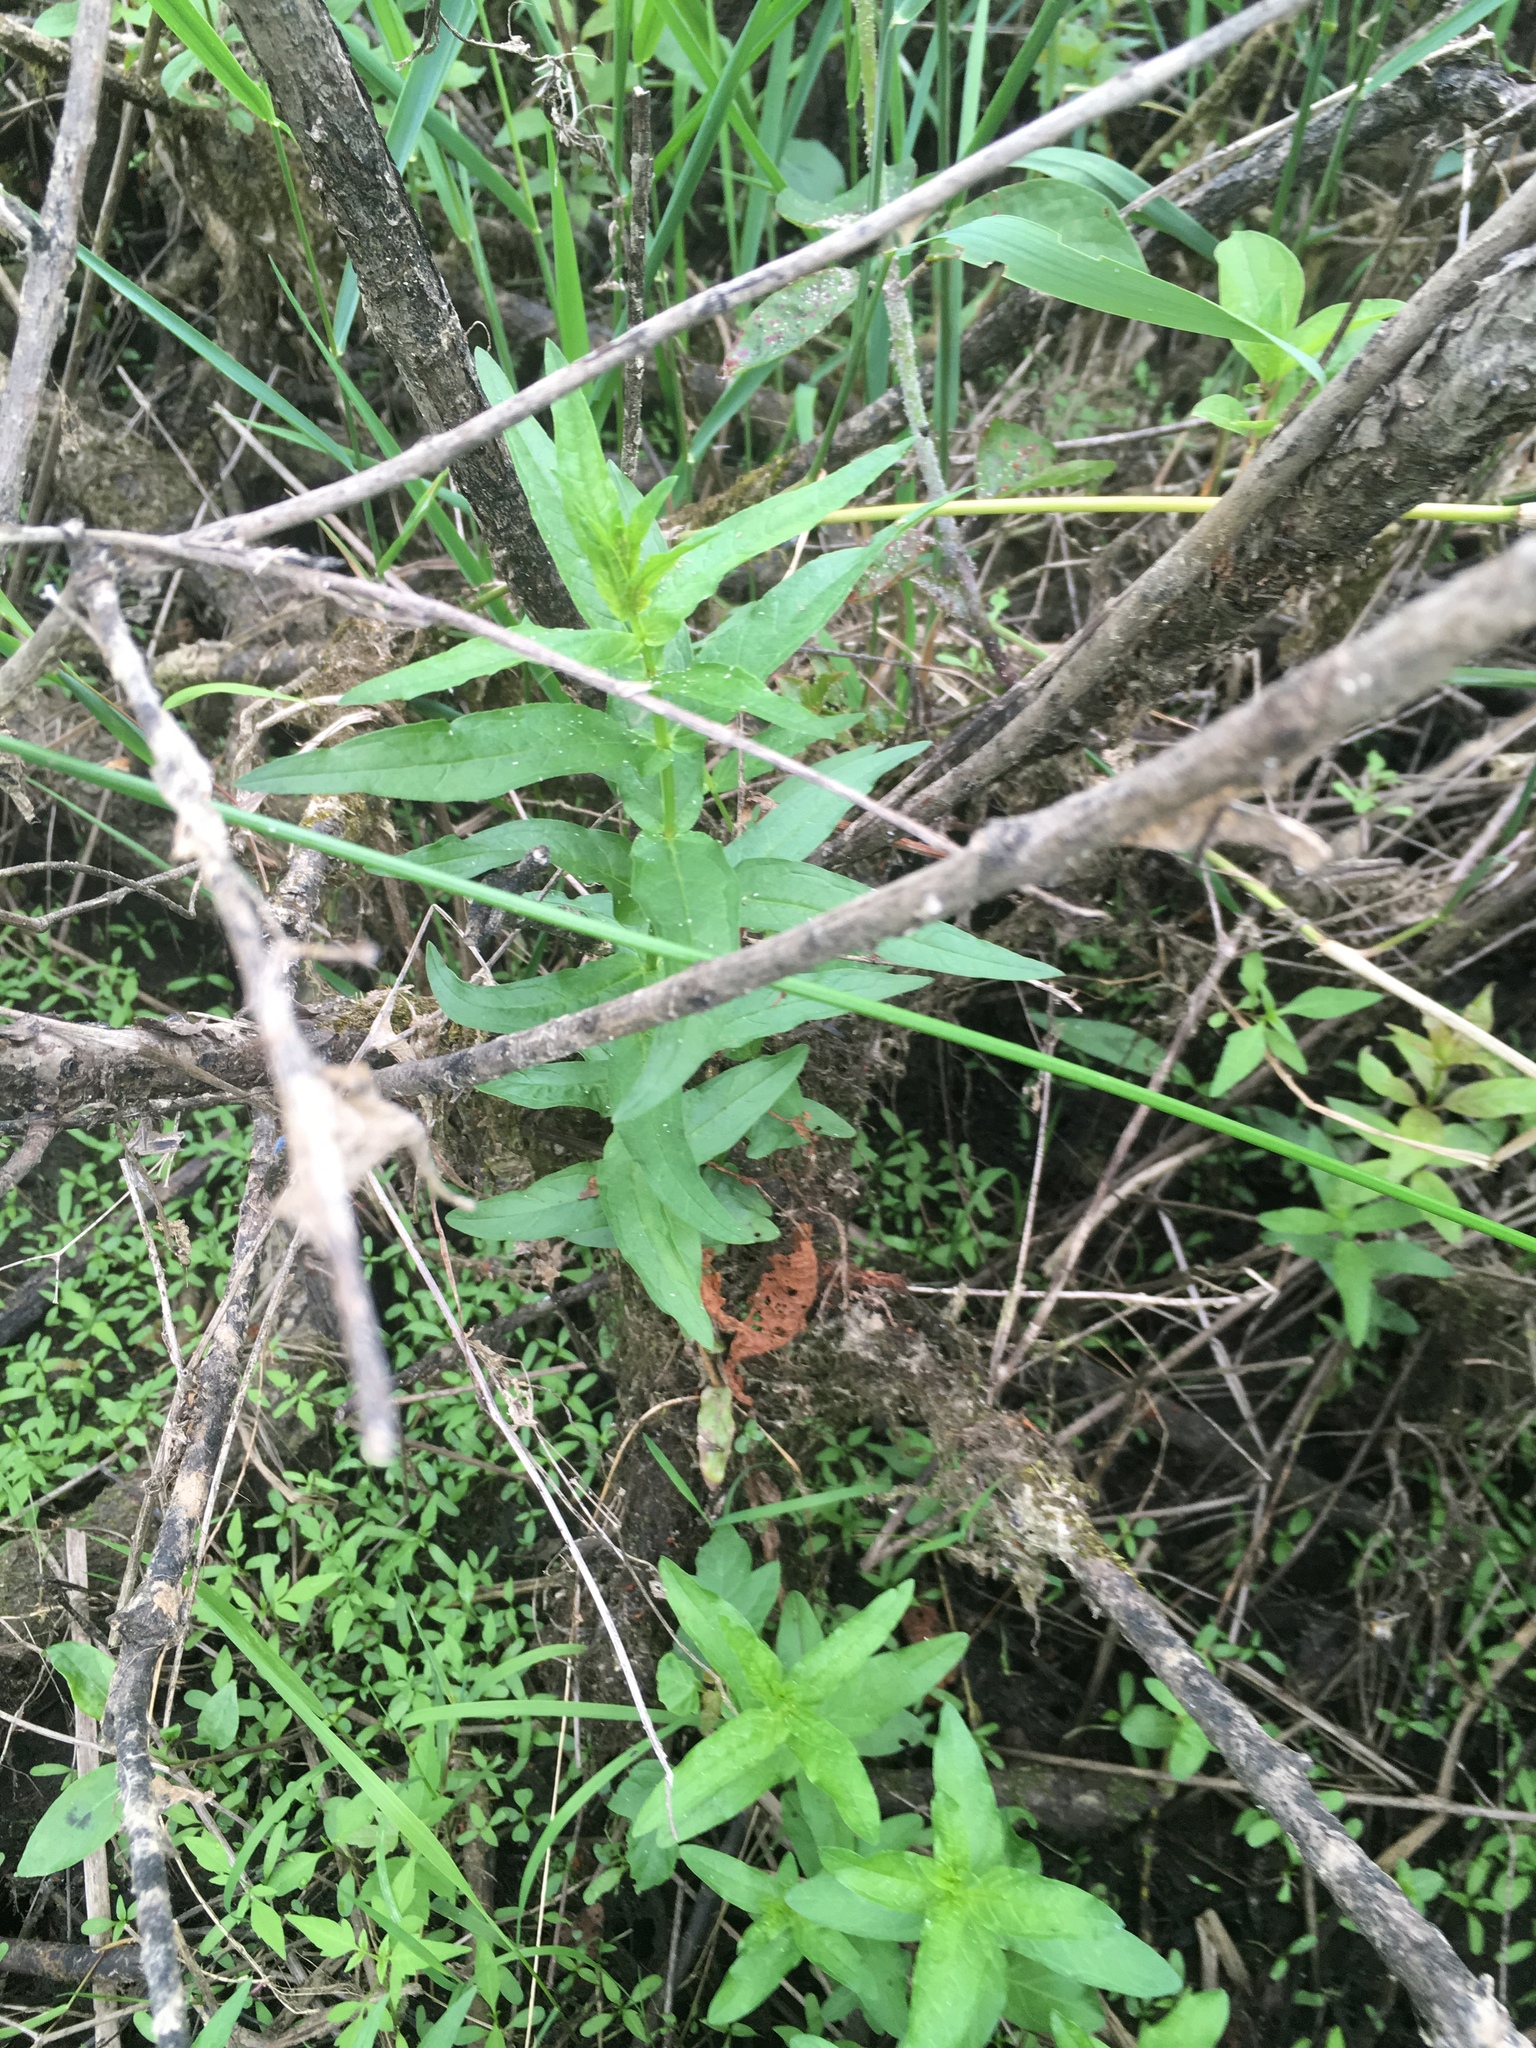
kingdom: Plantae
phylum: Tracheophyta
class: Magnoliopsida
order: Myrtales
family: Lythraceae
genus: Lythrum
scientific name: Lythrum salicaria
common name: Purple loosestrife
